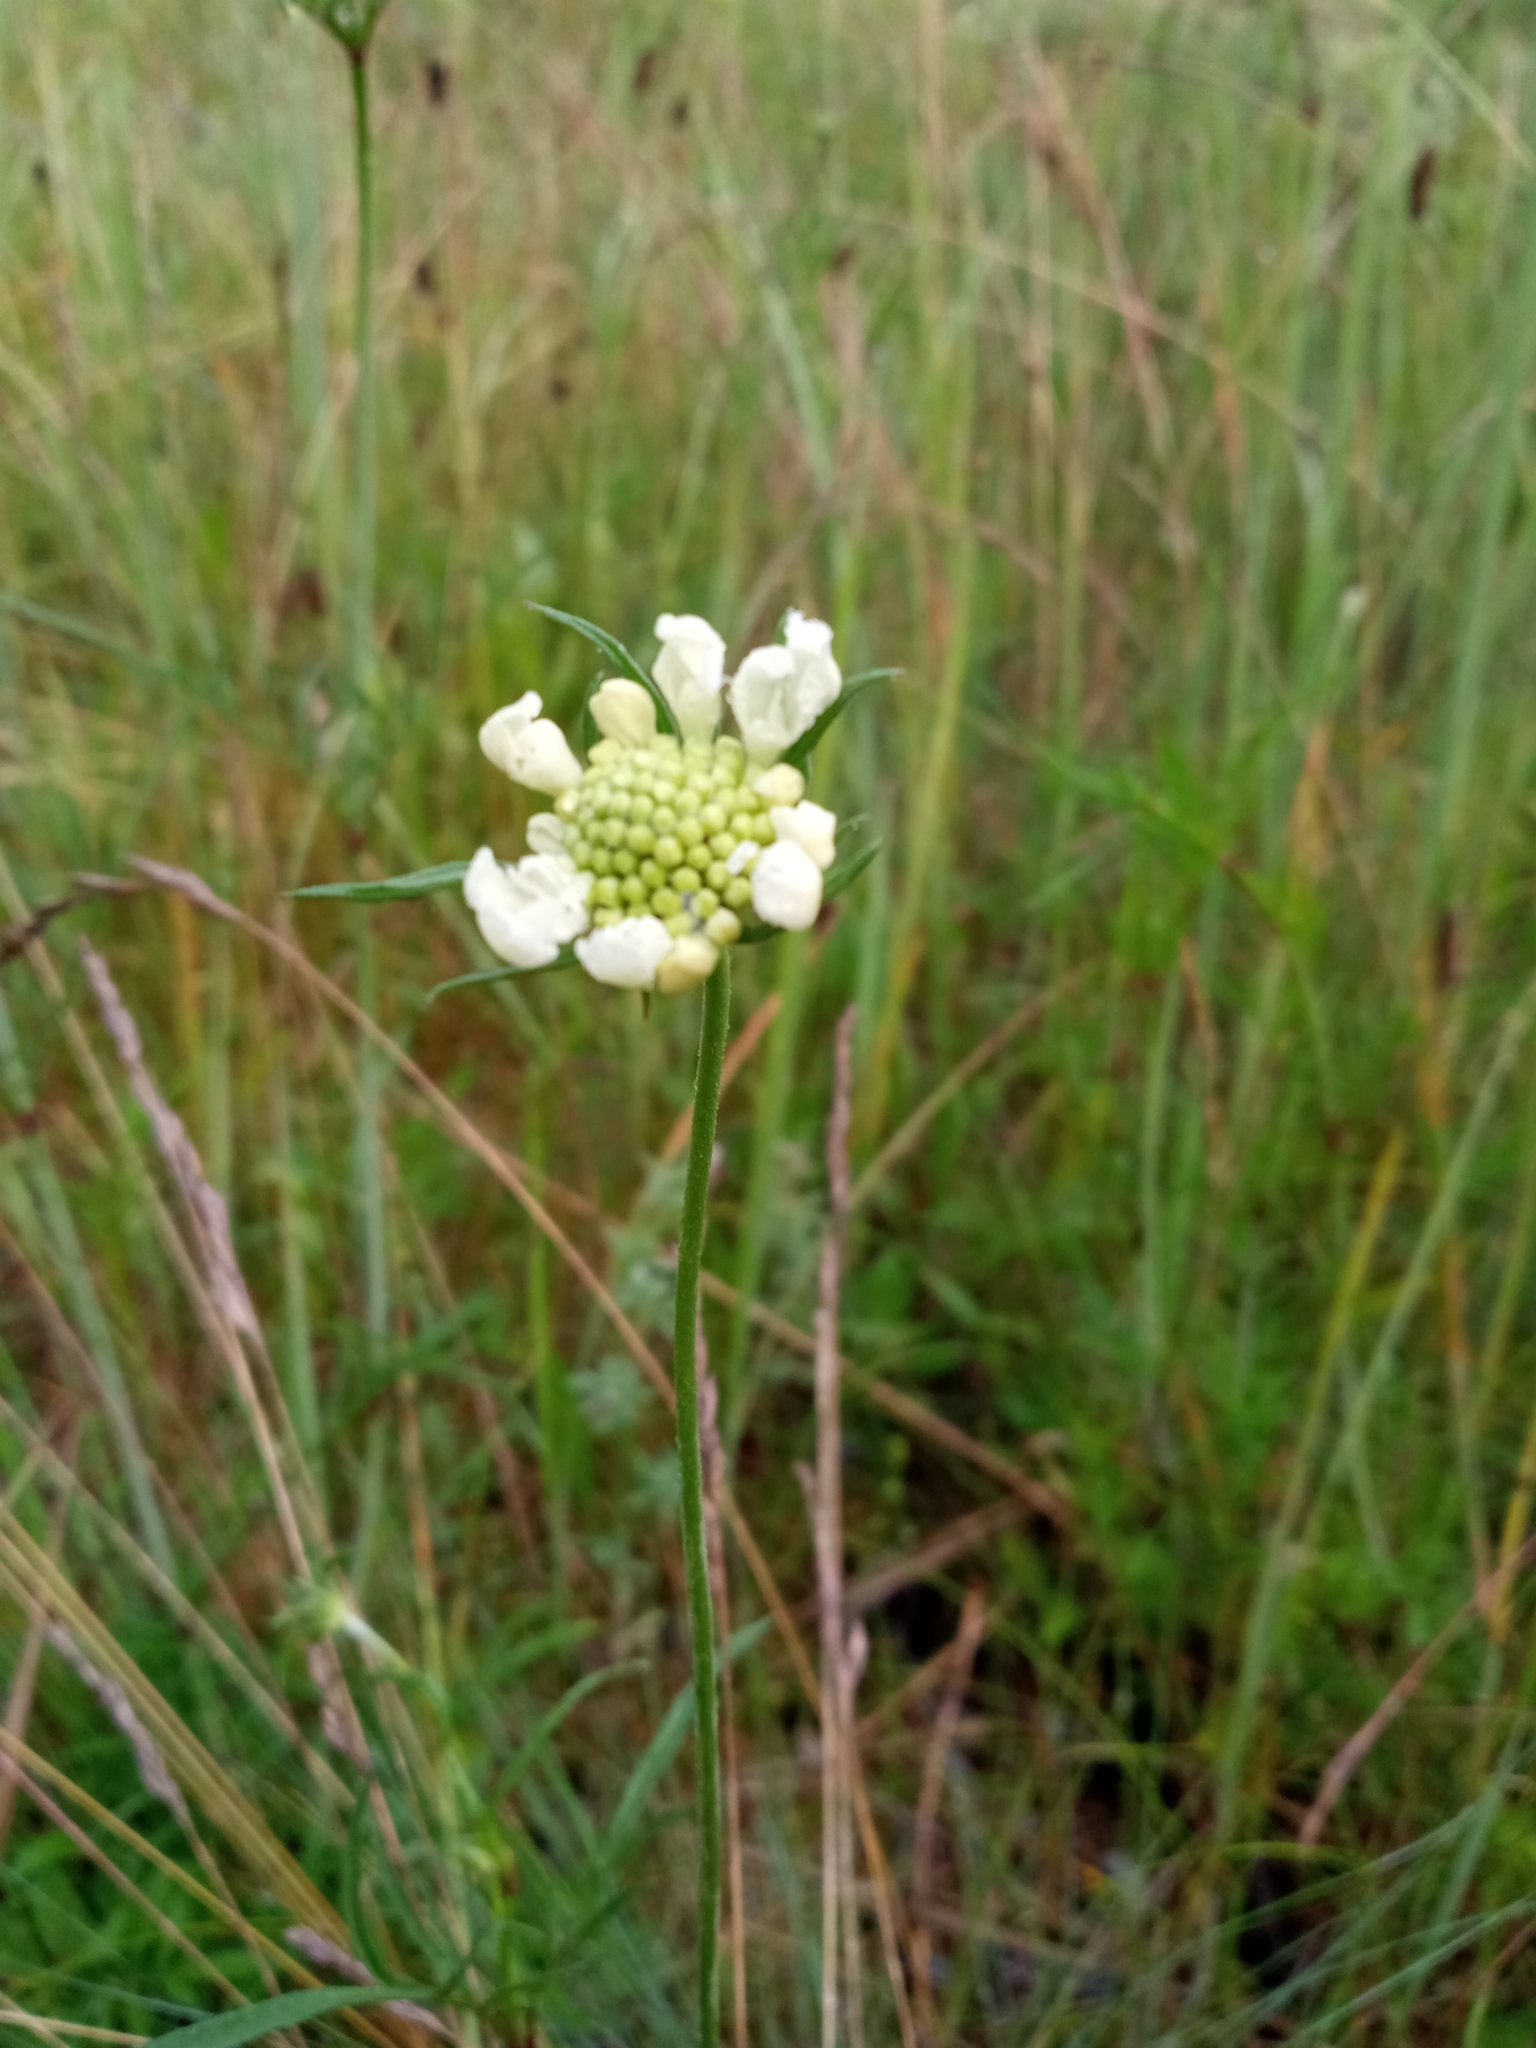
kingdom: Plantae
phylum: Tracheophyta
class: Magnoliopsida
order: Dipsacales
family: Caprifoliaceae
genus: Scabiosa
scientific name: Scabiosa ochroleuca
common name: Cream pincushions
